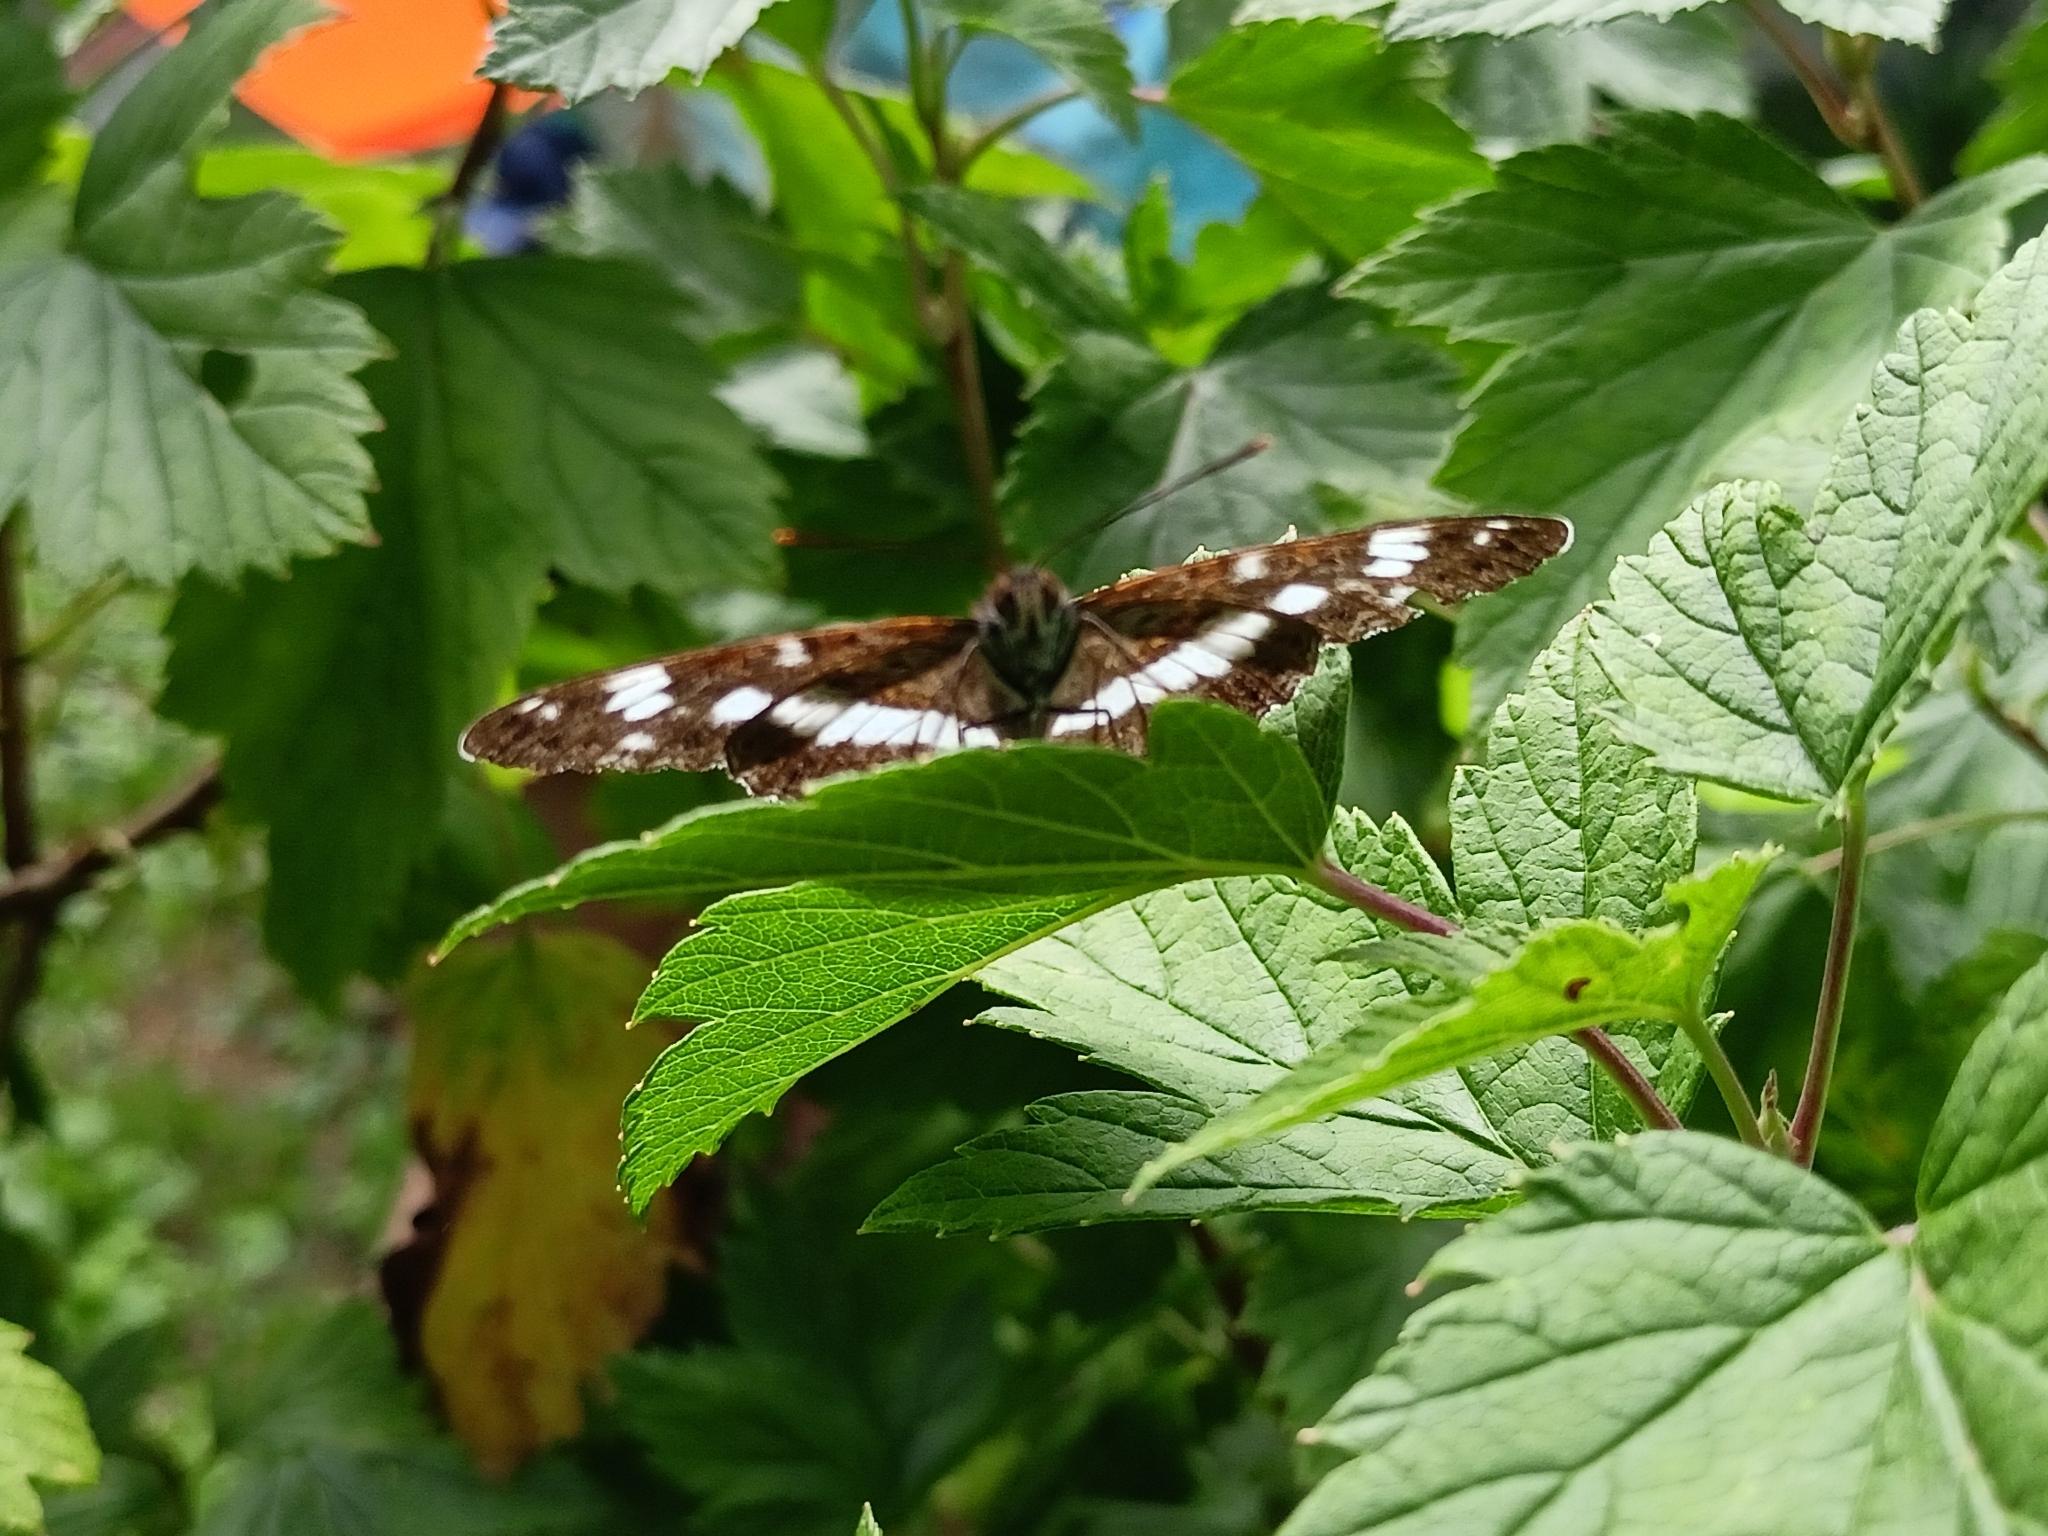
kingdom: Animalia
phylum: Arthropoda
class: Insecta
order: Lepidoptera
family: Nymphalidae
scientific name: Nymphalidae
